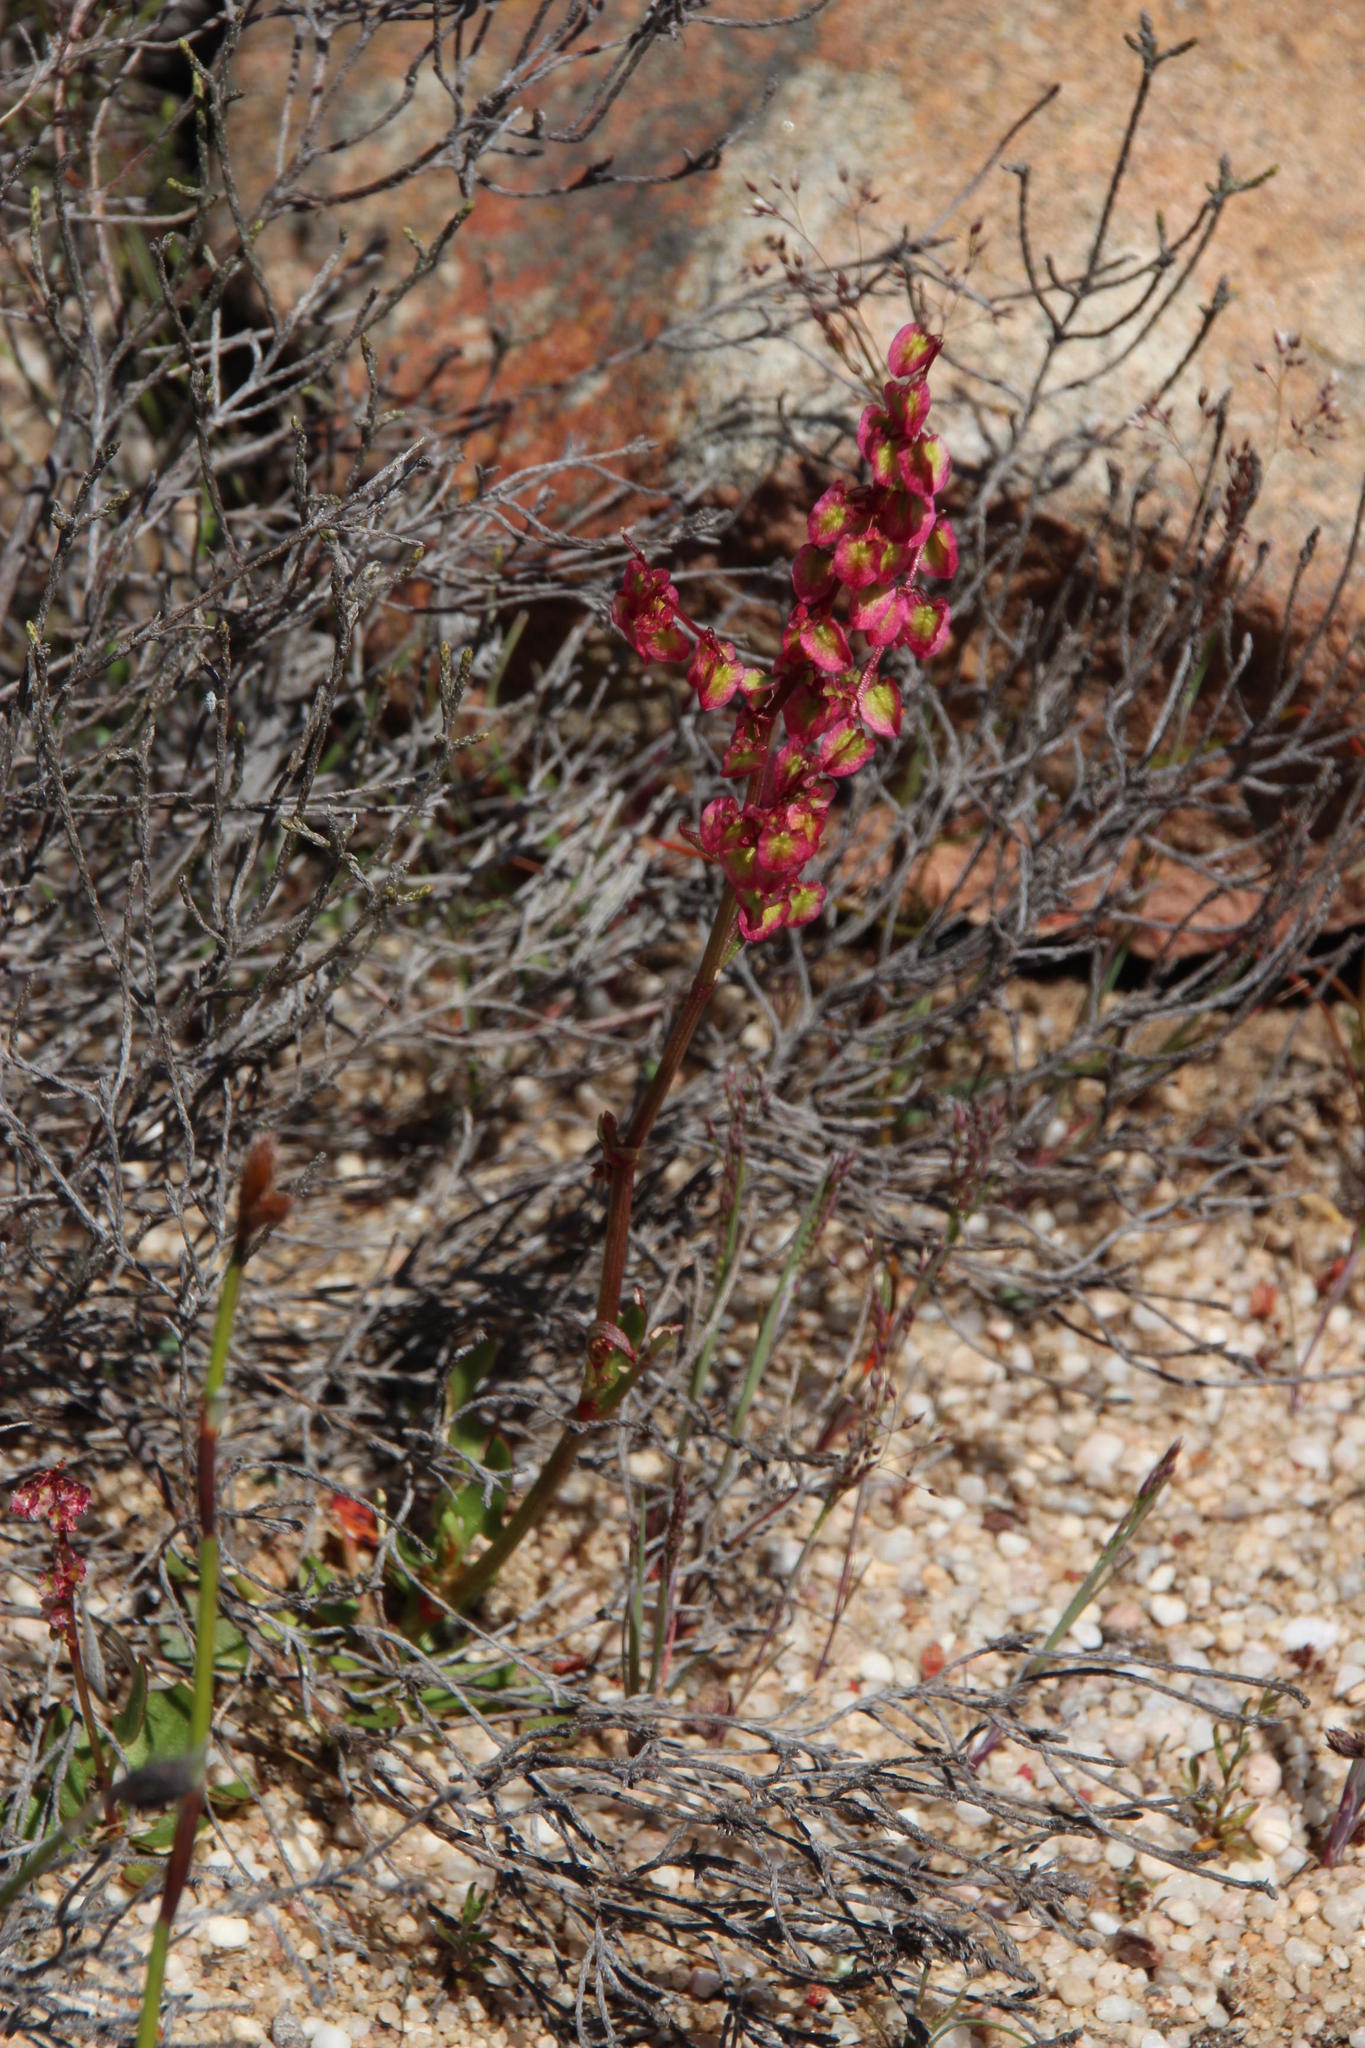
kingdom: Plantae
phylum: Tracheophyta
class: Magnoliopsida
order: Caryophyllales
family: Polygonaceae
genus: Rumex
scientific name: Rumex acetosella
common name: Common sheep sorrel
